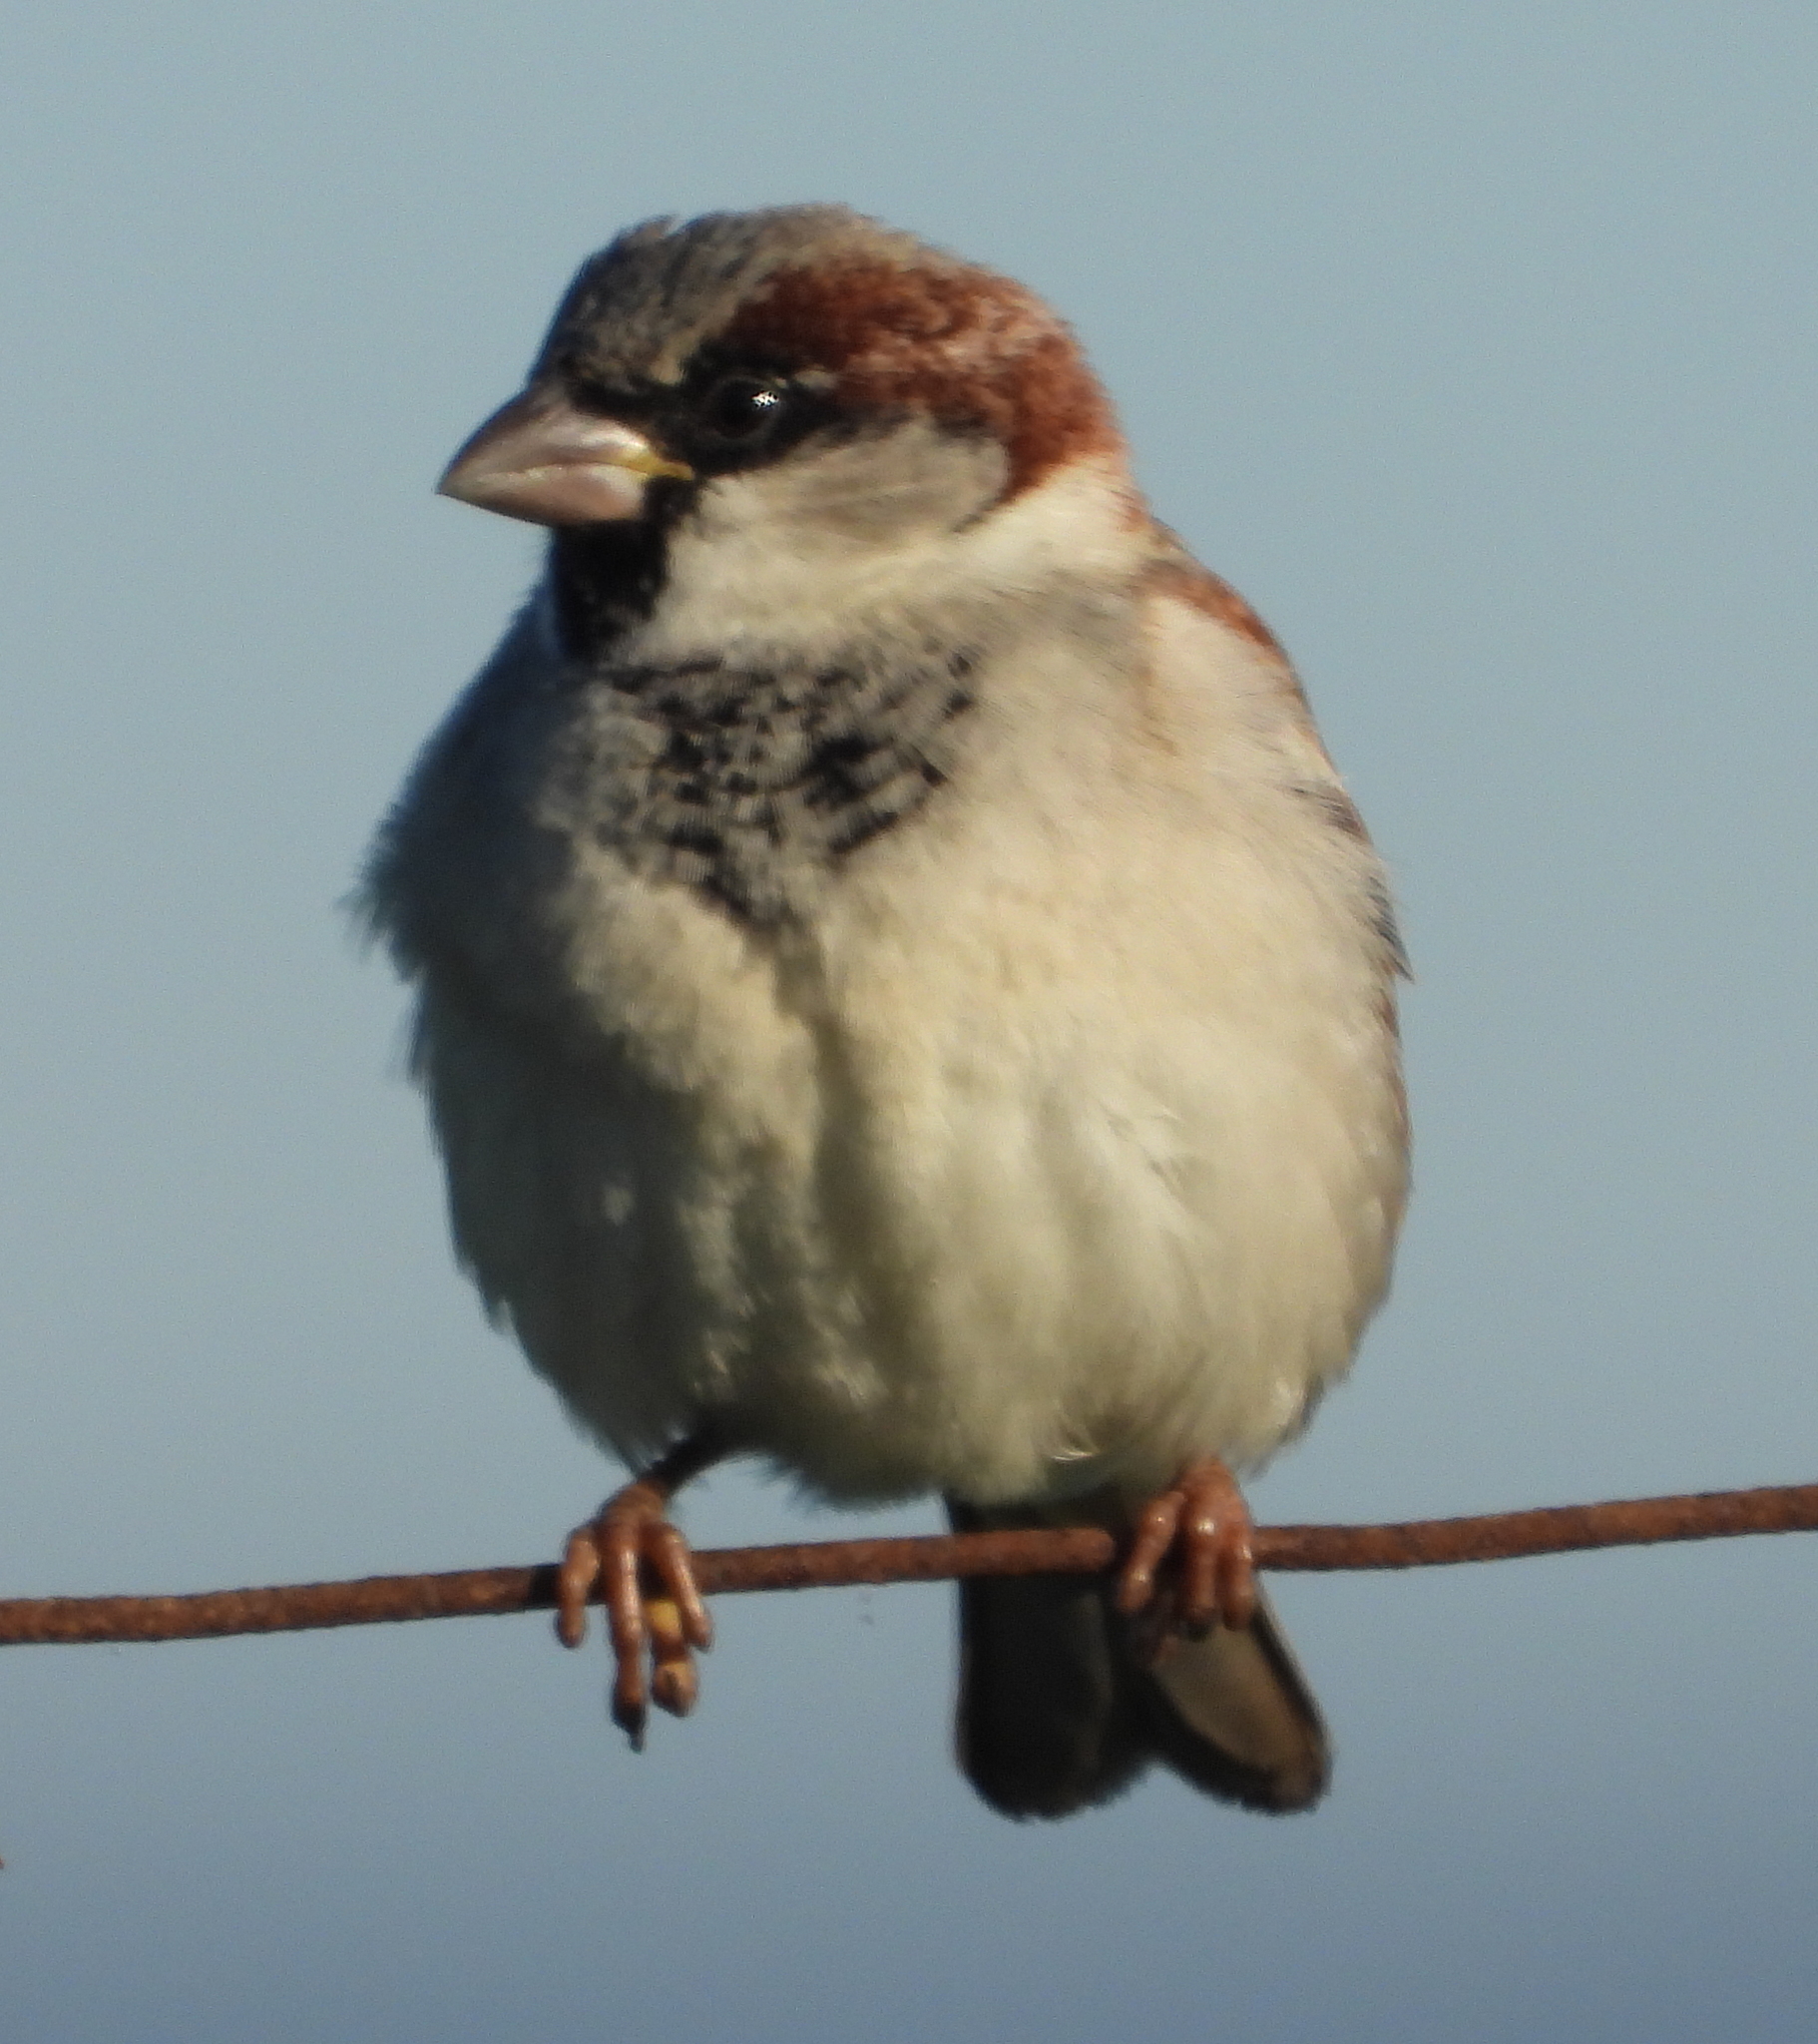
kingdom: Animalia
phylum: Chordata
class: Aves
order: Passeriformes
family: Passeridae
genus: Passer
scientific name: Passer domesticus
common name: House sparrow
